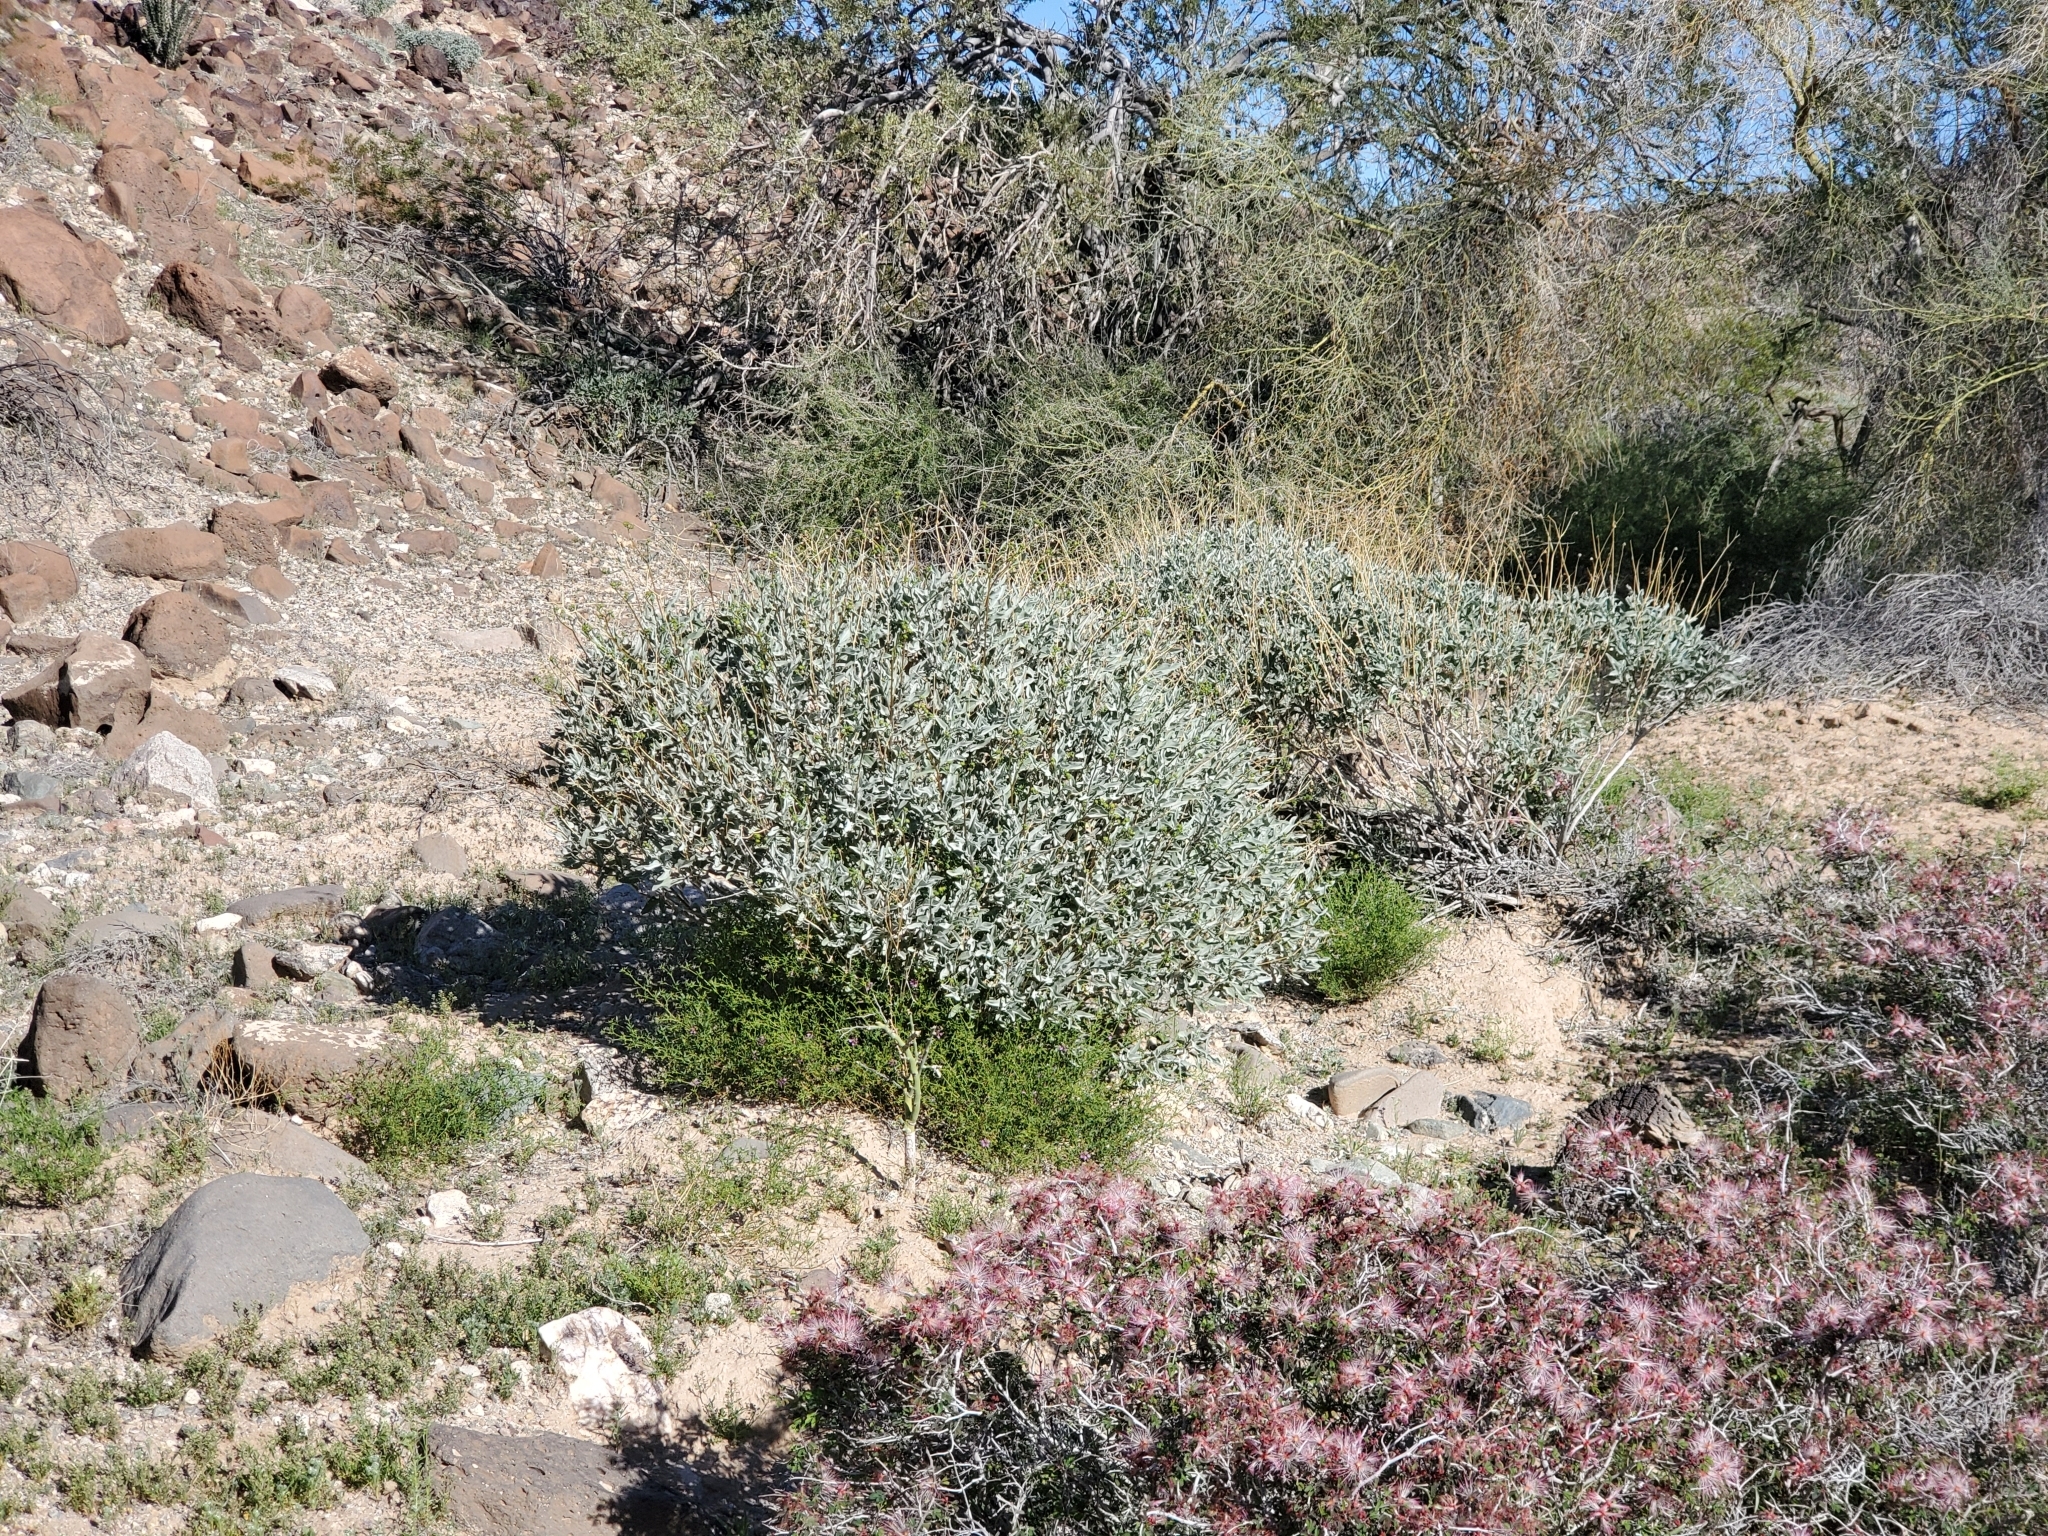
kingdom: Plantae
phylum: Tracheophyta
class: Magnoliopsida
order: Asterales
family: Asteraceae
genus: Encelia
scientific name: Encelia farinosa
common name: Brittlebush
